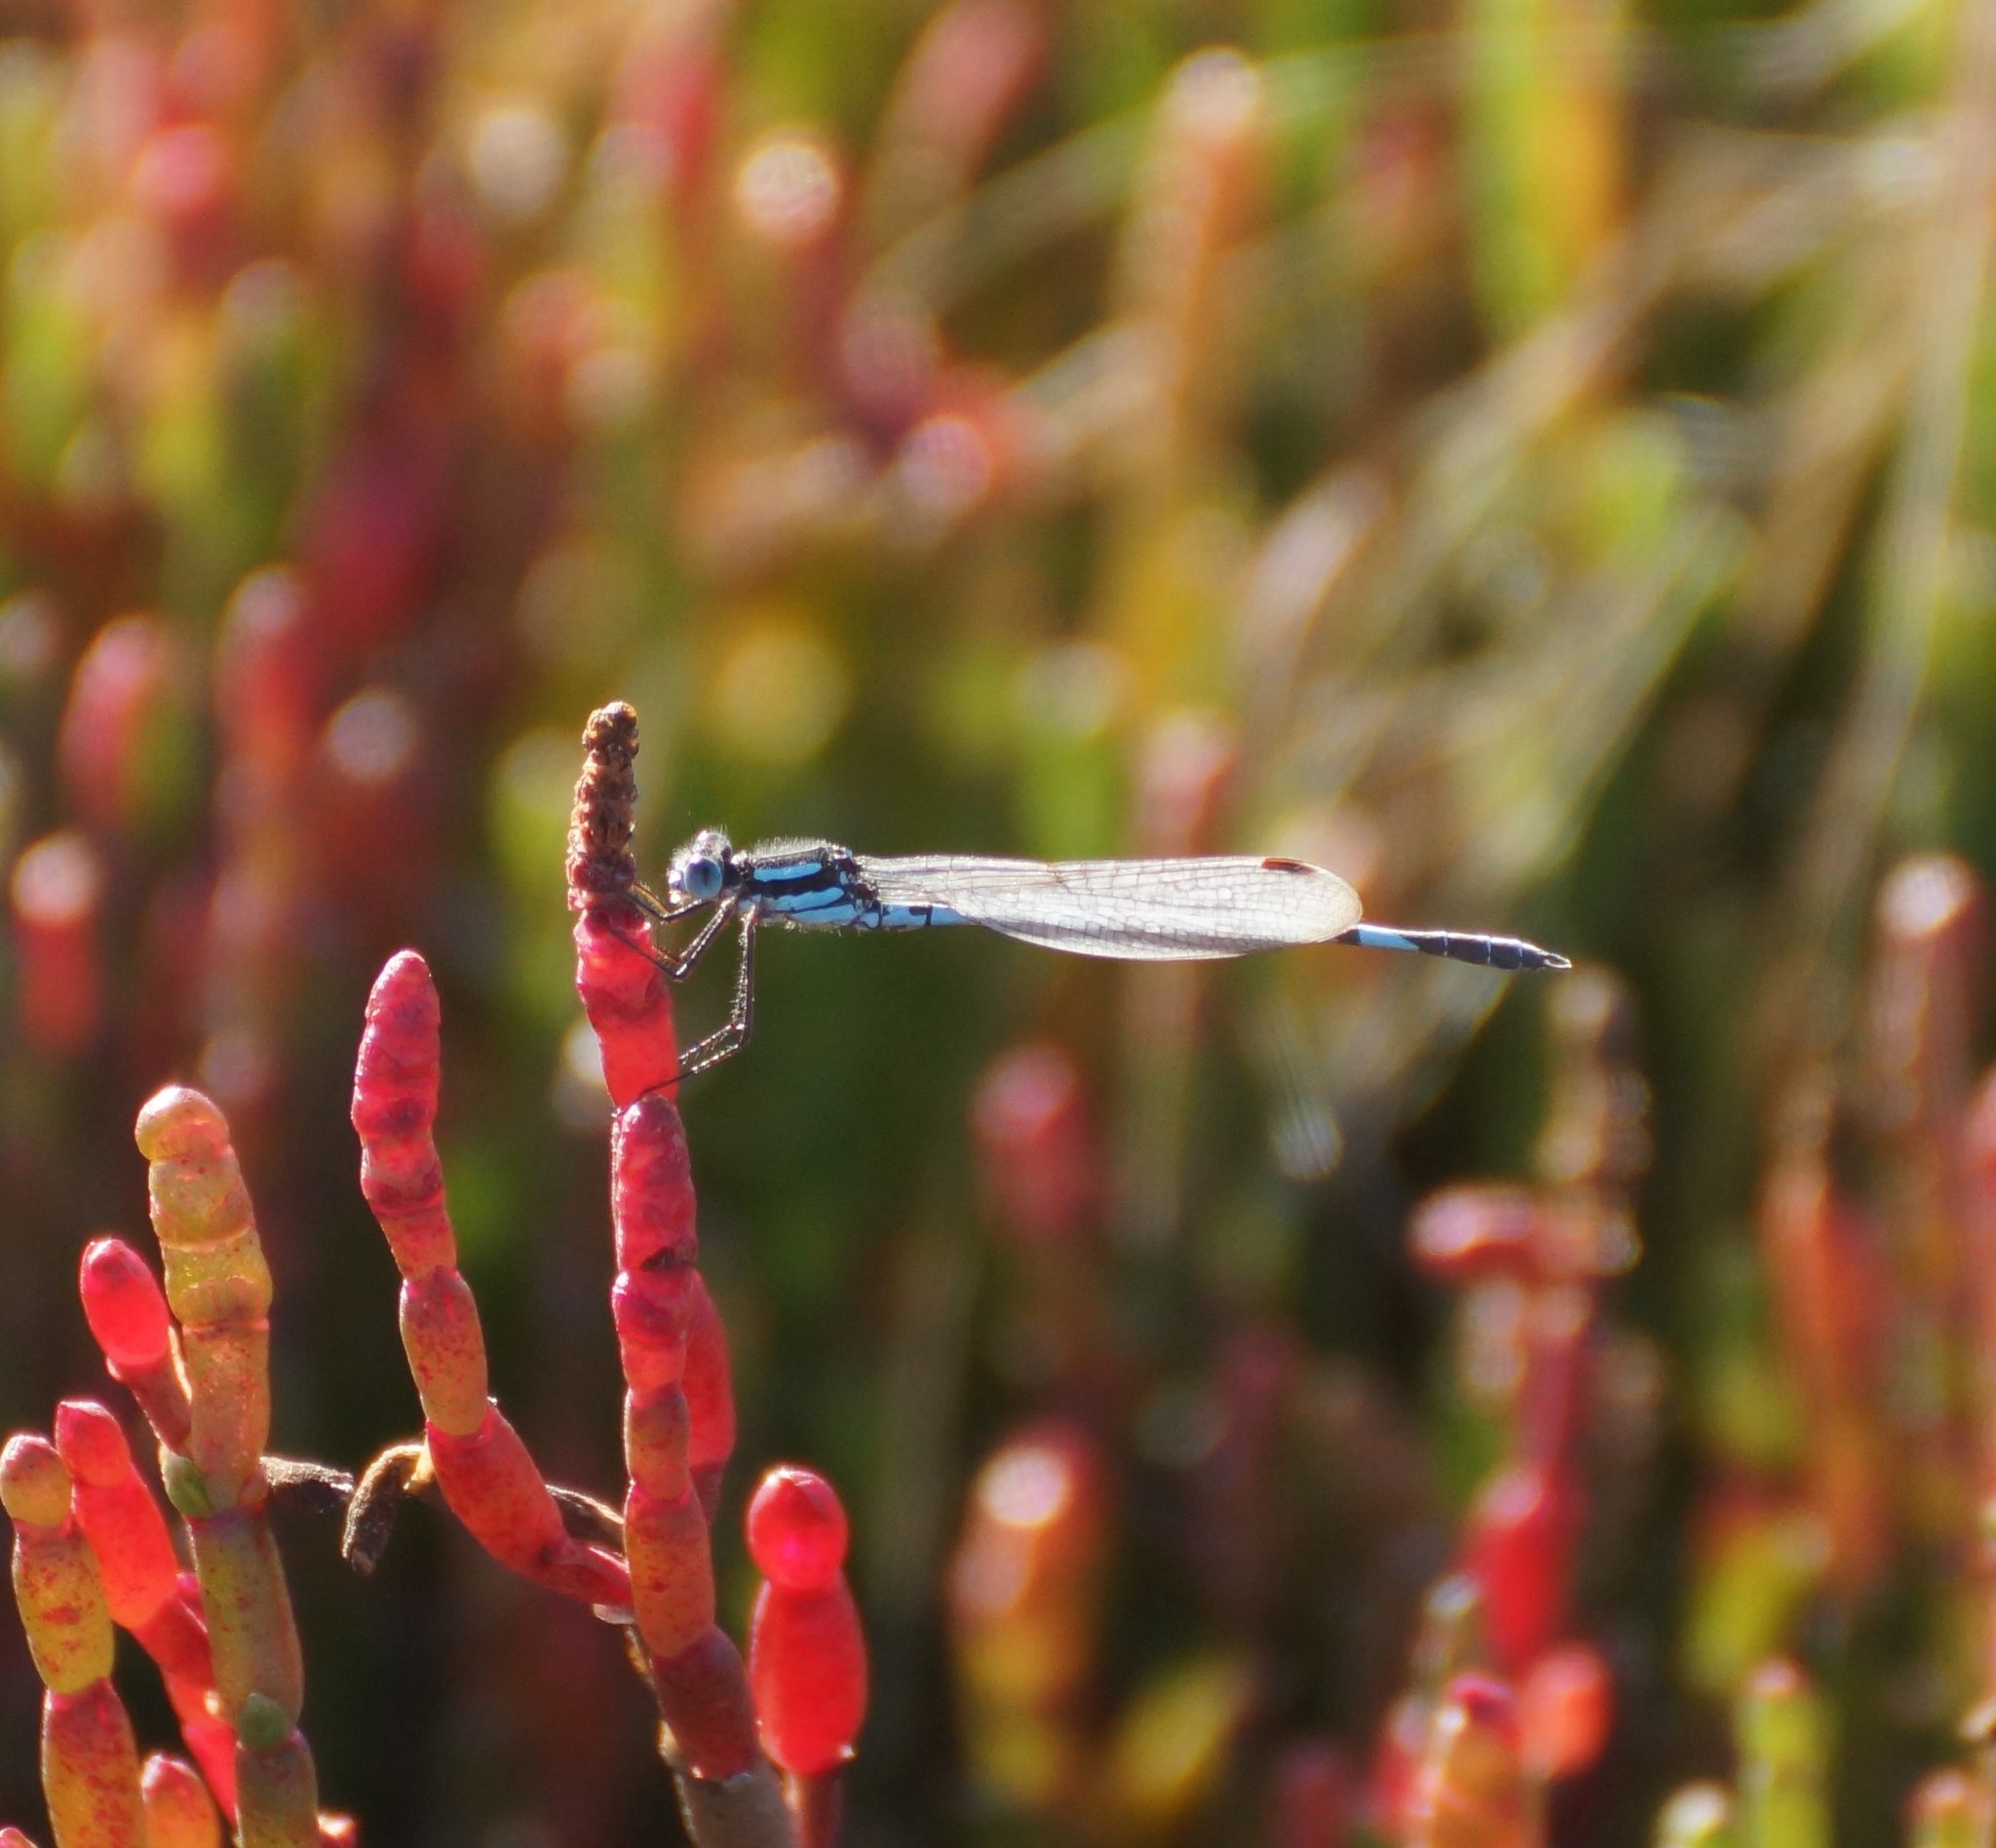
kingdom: Animalia
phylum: Arthropoda
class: Insecta
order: Odonata
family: Lestidae
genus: Austrolestes
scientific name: Austrolestes annulosus
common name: Blue ringtail
